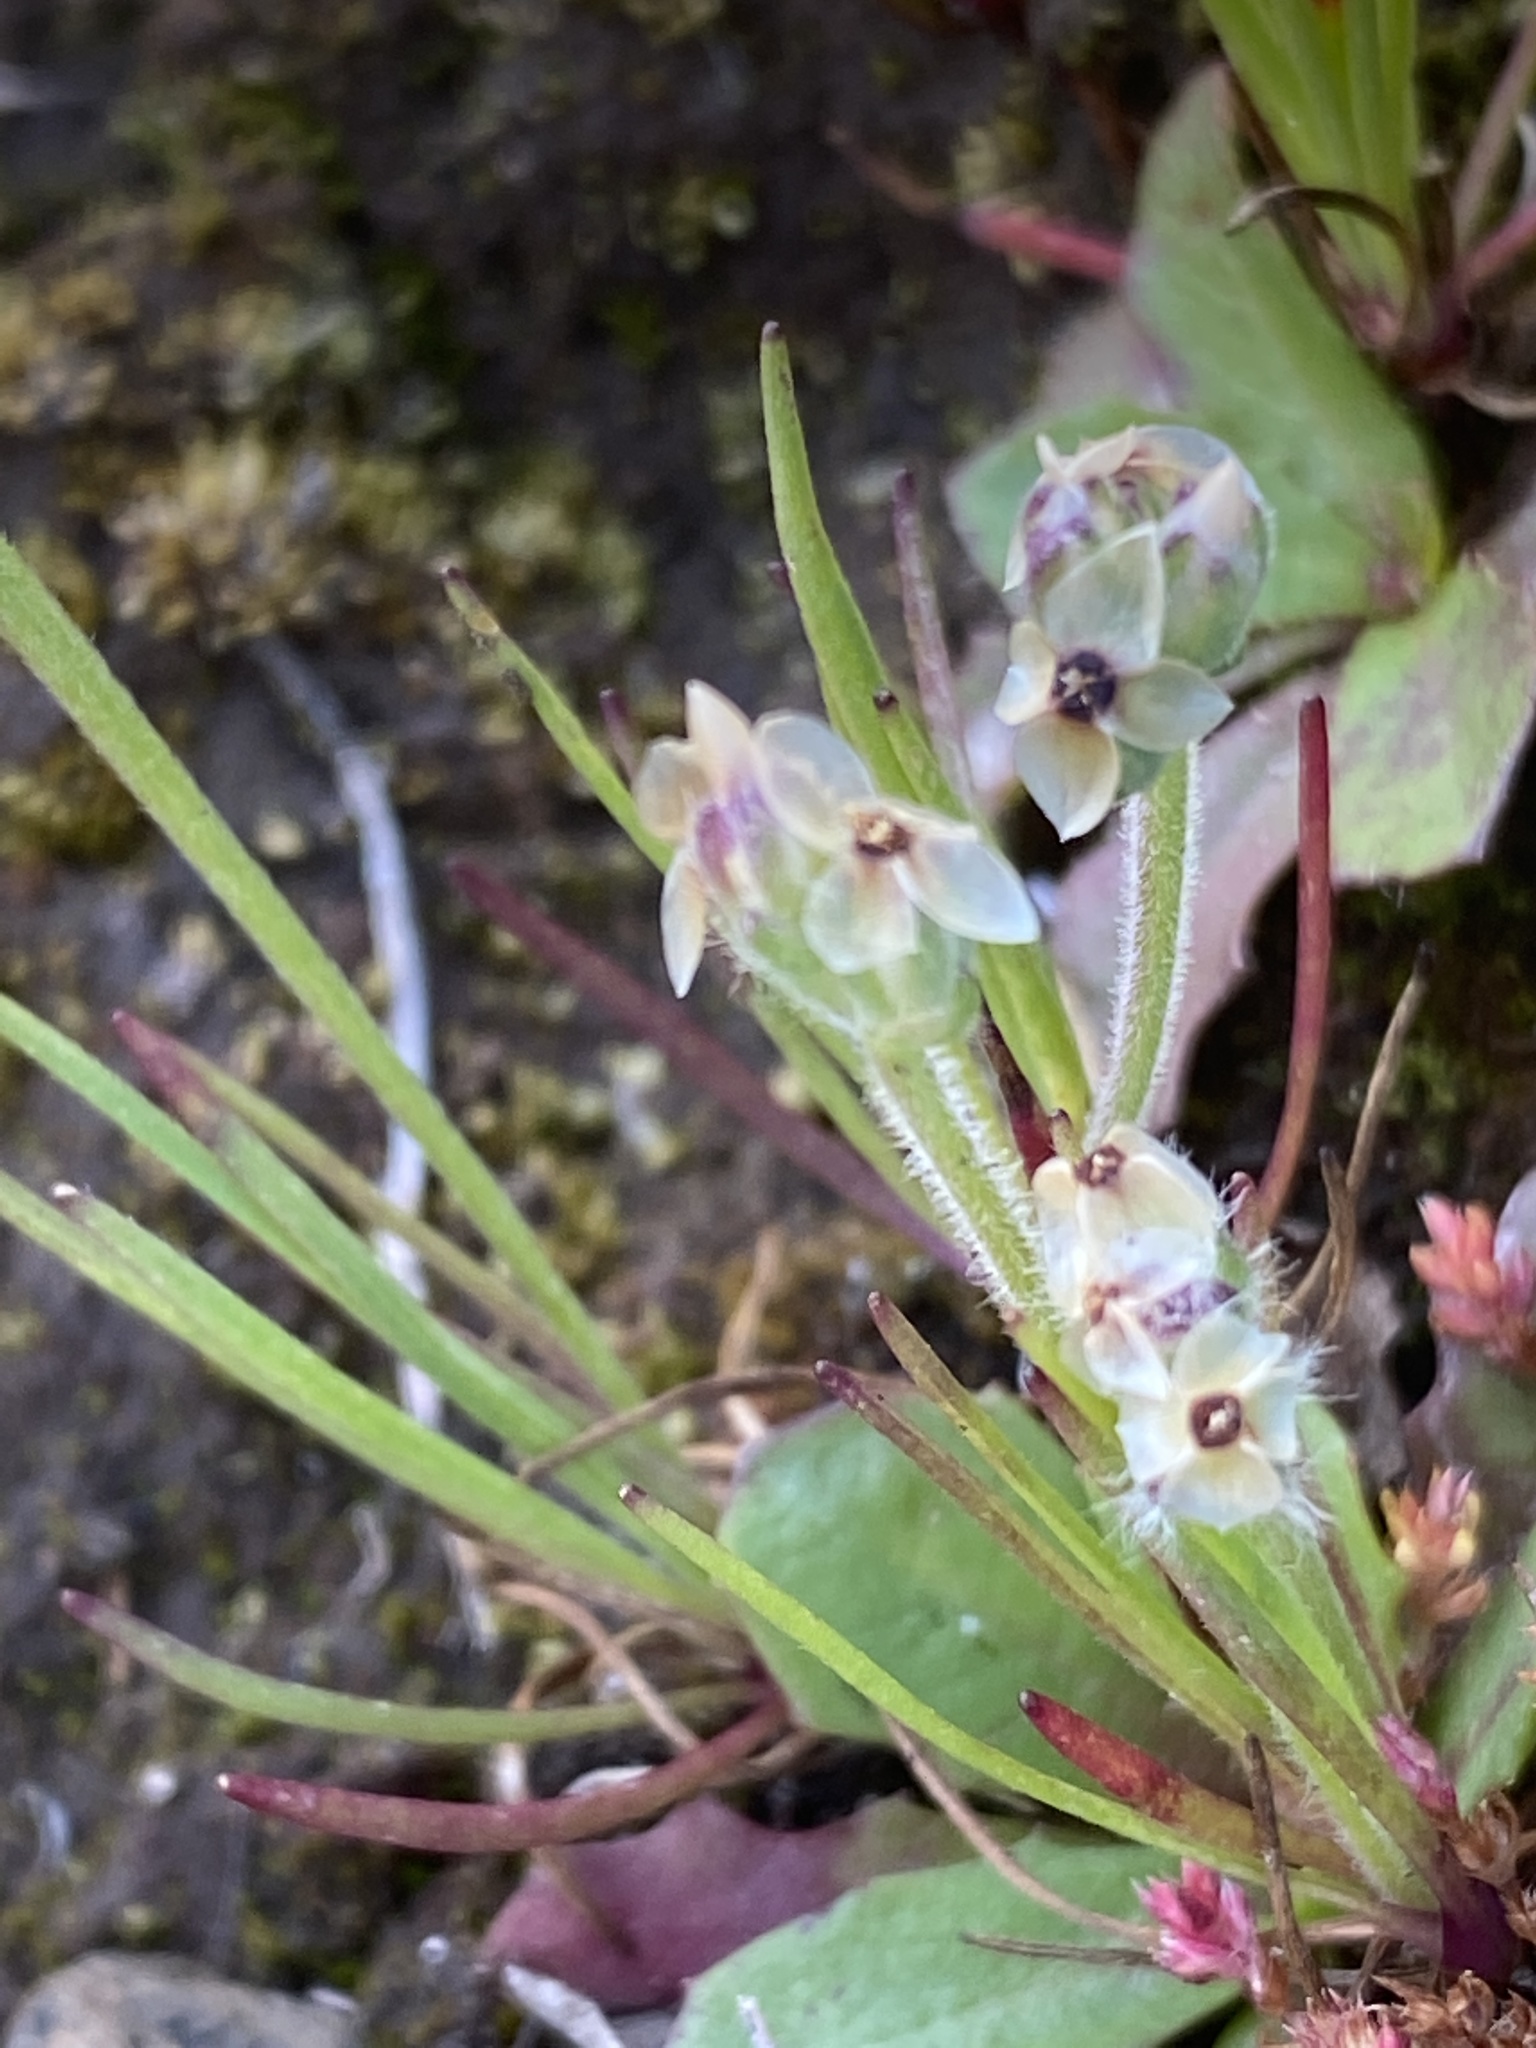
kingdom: Plantae
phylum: Tracheophyta
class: Magnoliopsida
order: Lamiales
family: Plantaginaceae
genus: Plantago
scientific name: Plantago erecta
